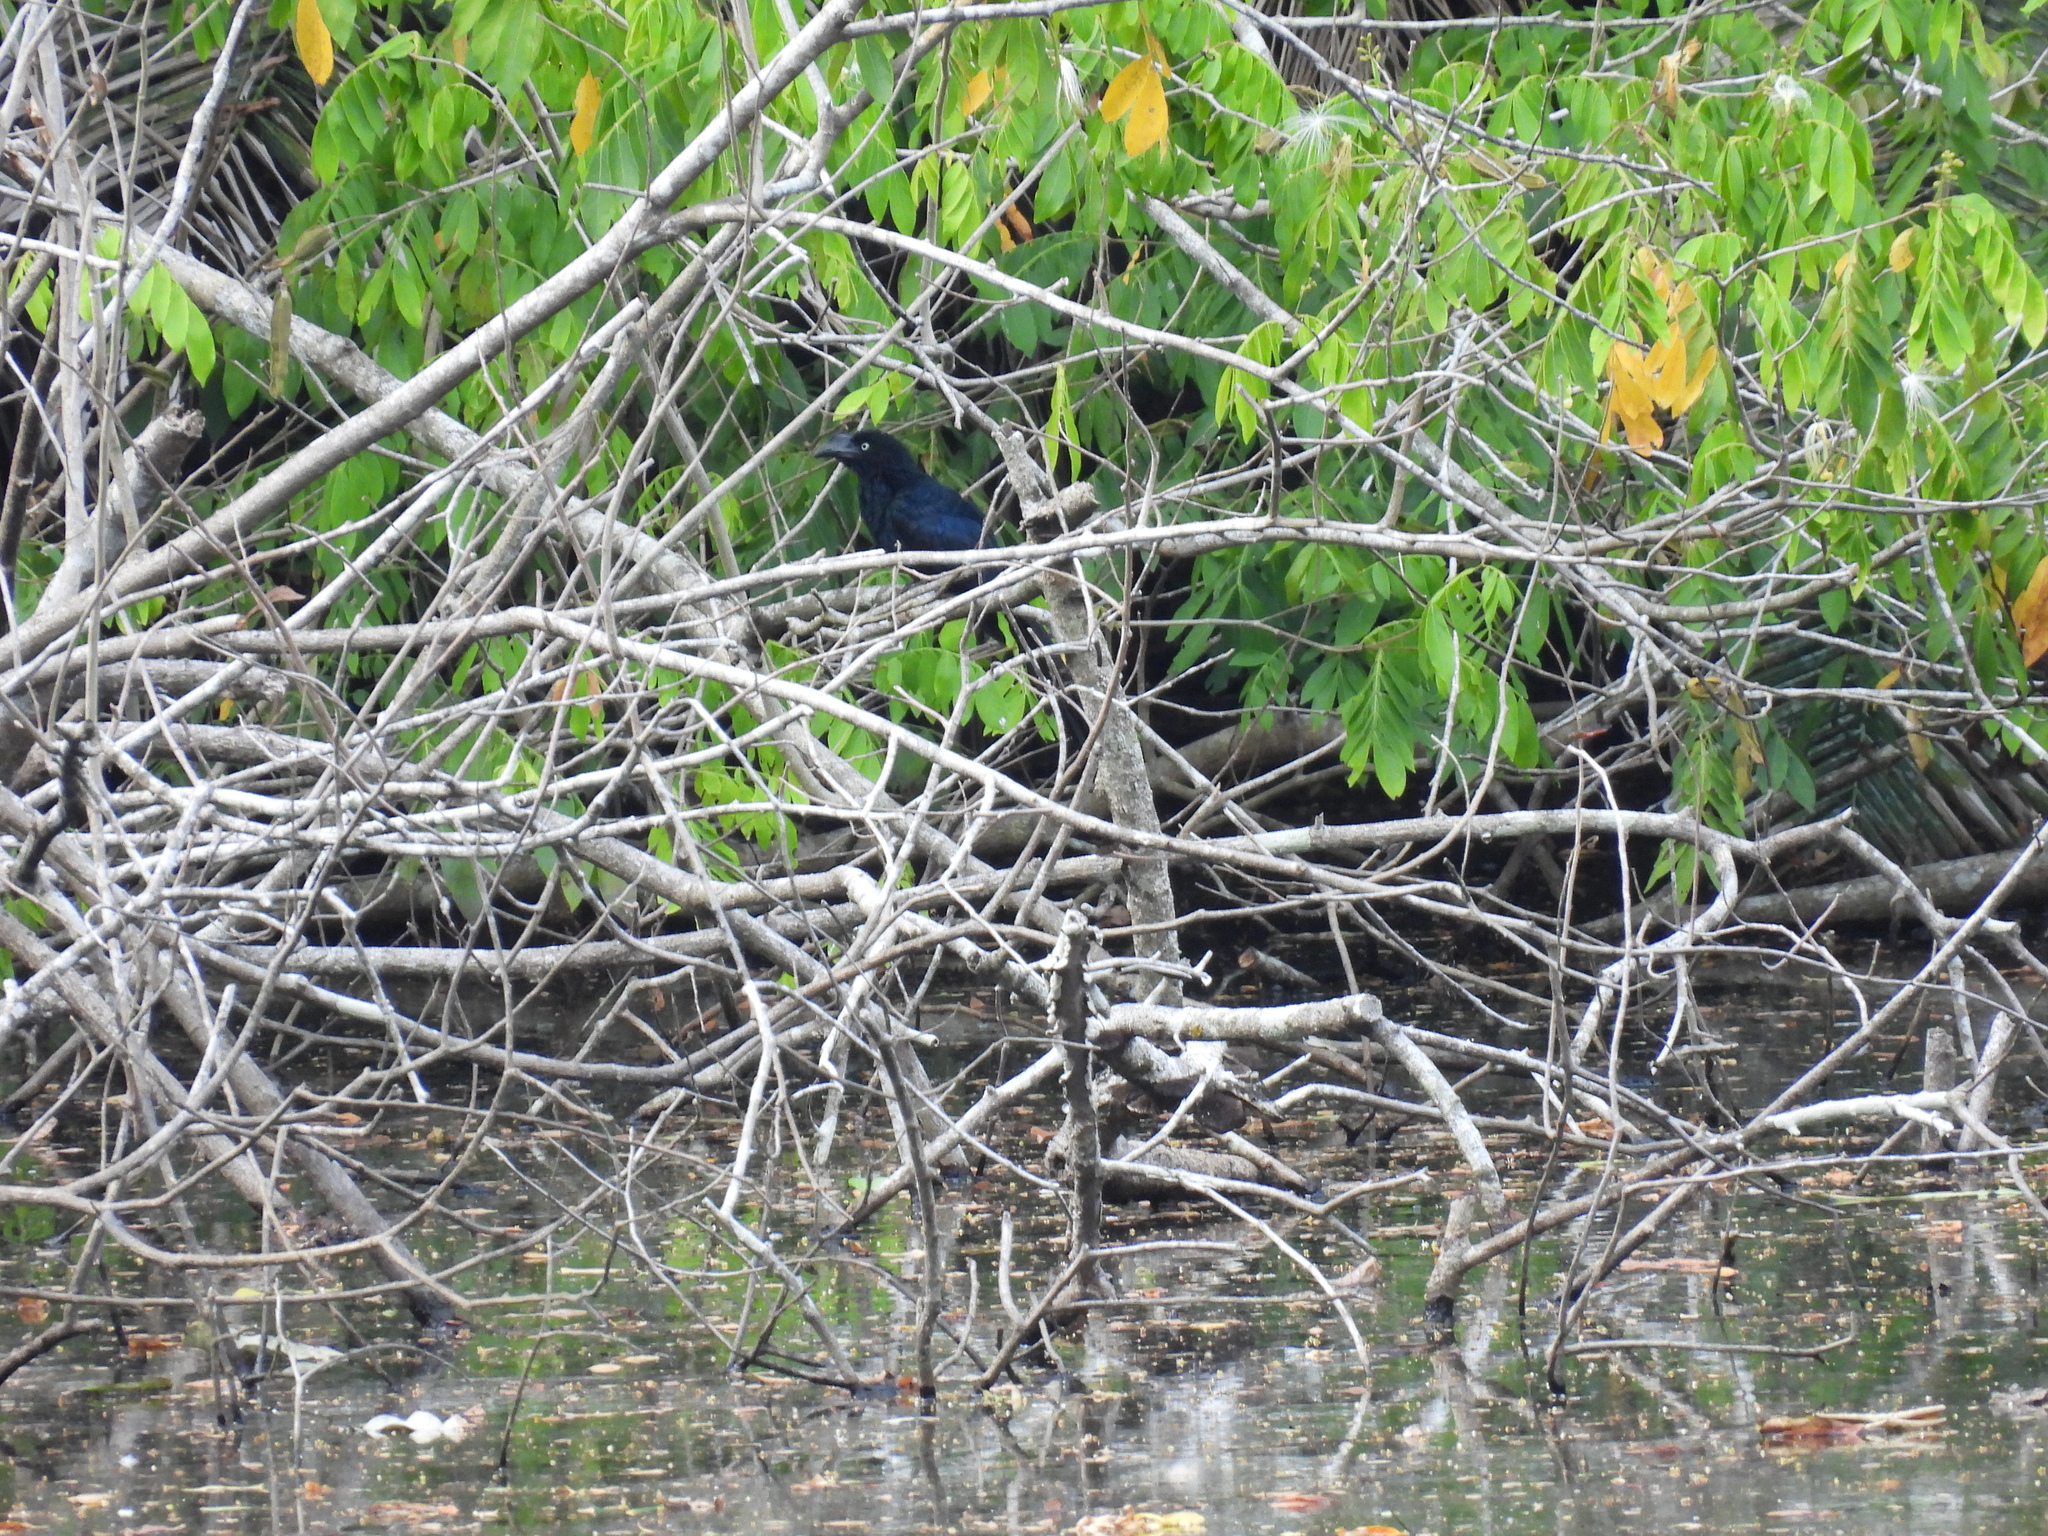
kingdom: Animalia
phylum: Chordata
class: Aves
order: Cuculiformes
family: Cuculidae
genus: Crotophaga
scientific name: Crotophaga major
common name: Greater ani
